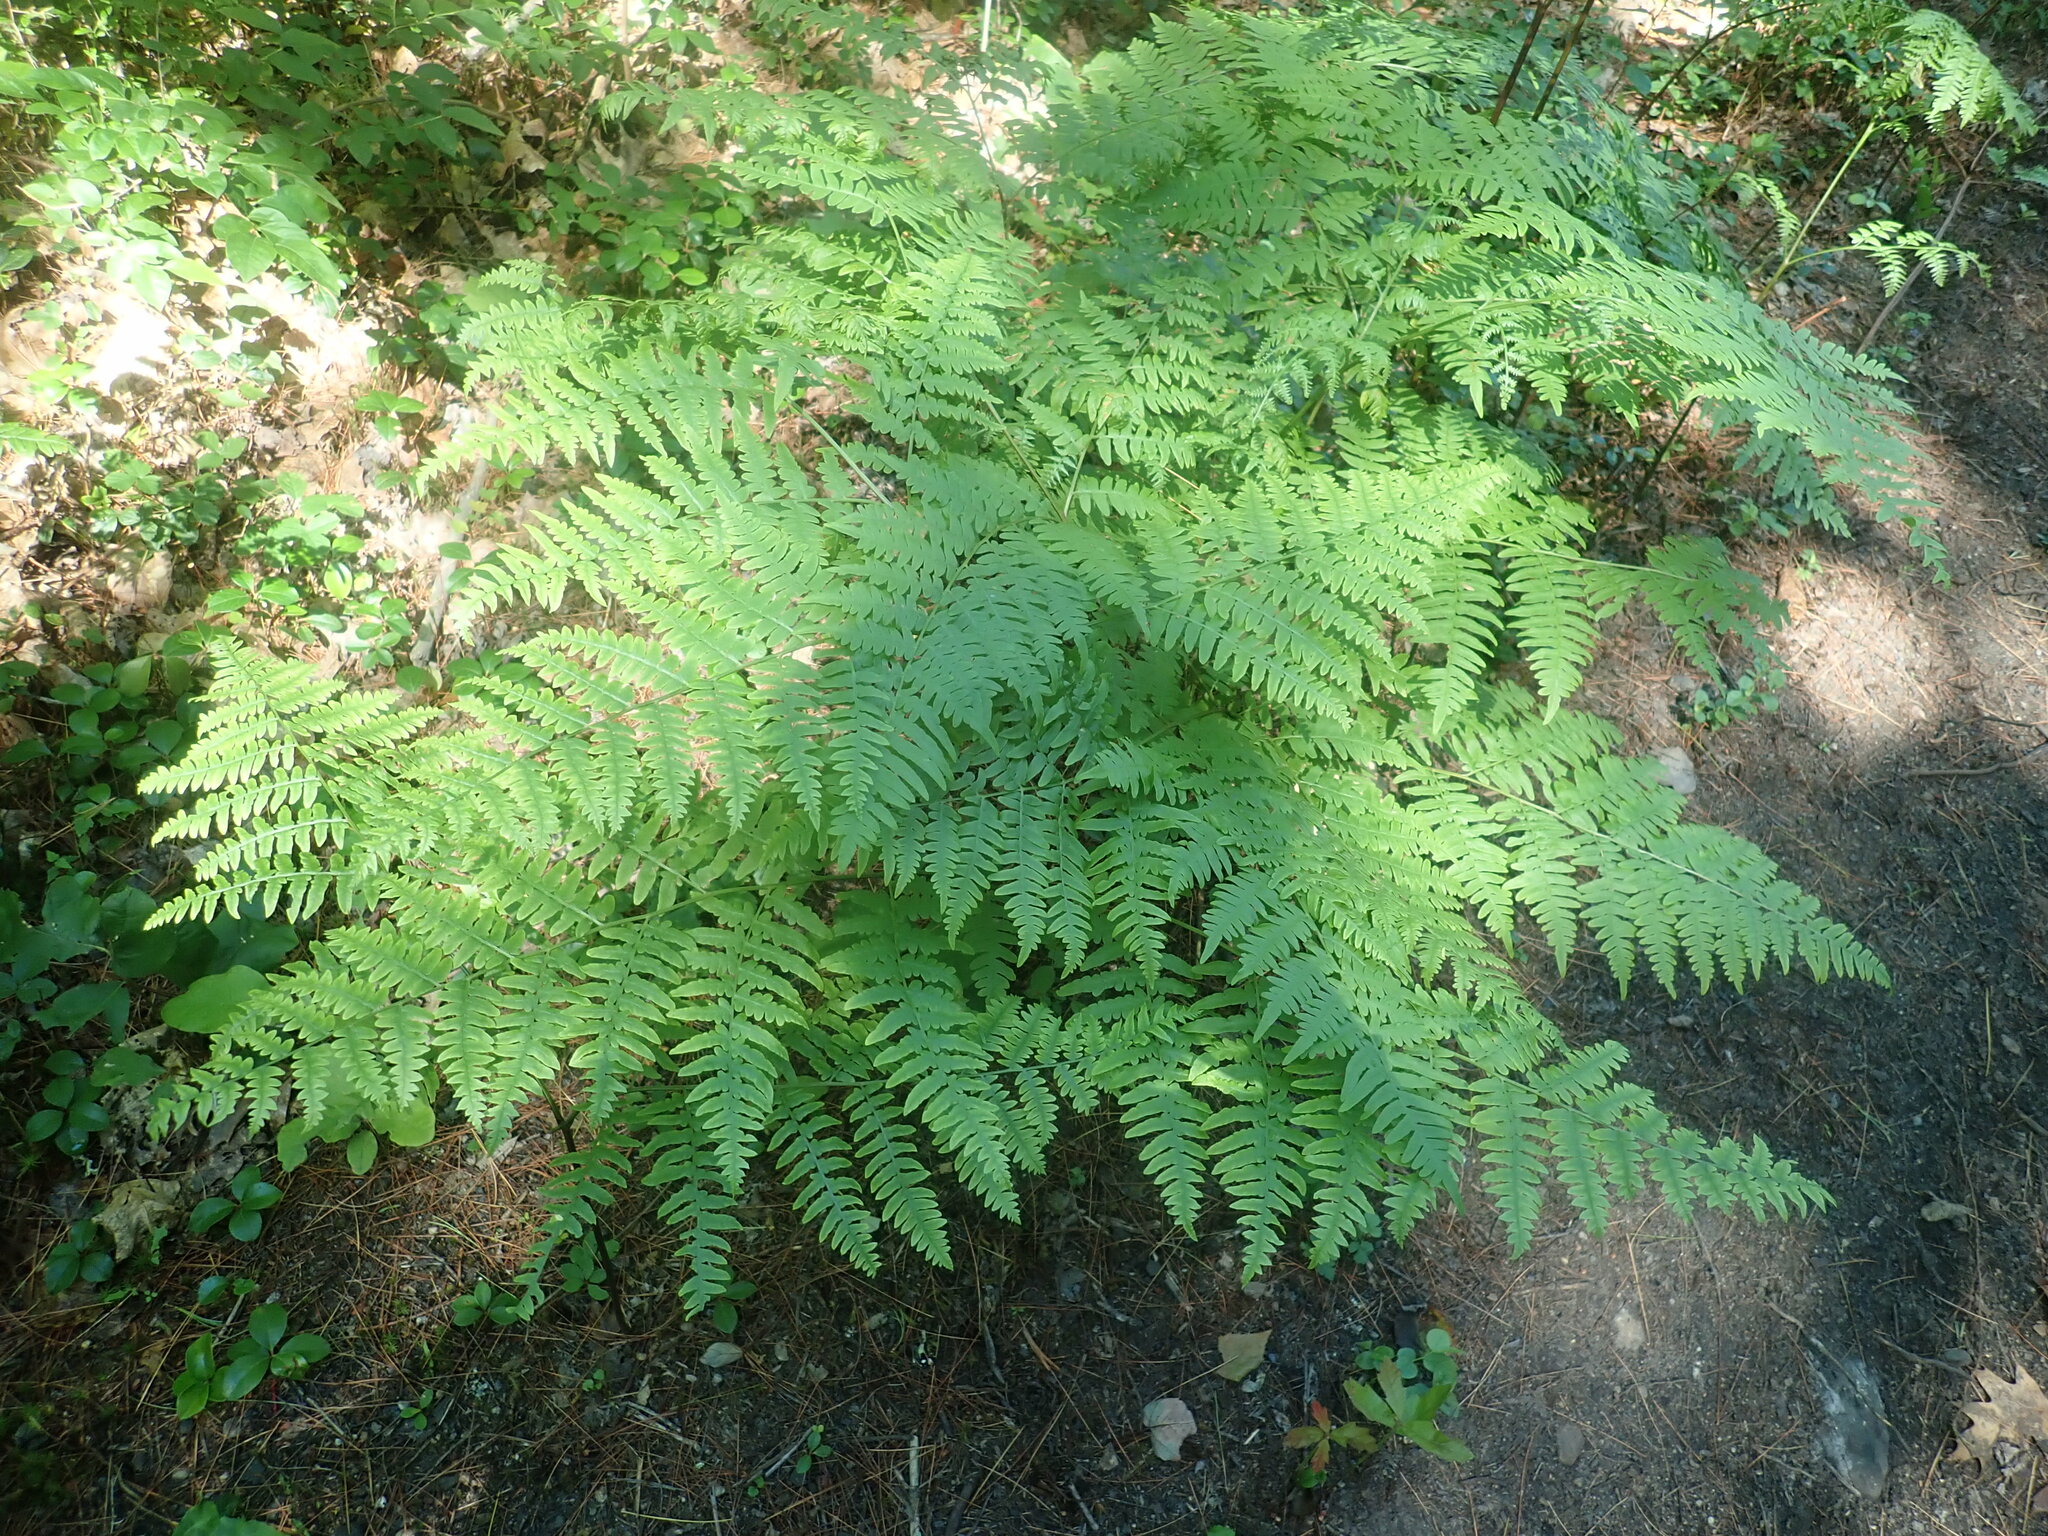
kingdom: Plantae
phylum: Tracheophyta
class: Polypodiopsida
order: Polypodiales
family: Dennstaedtiaceae
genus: Pteridium
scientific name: Pteridium aquilinum
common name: Bracken
